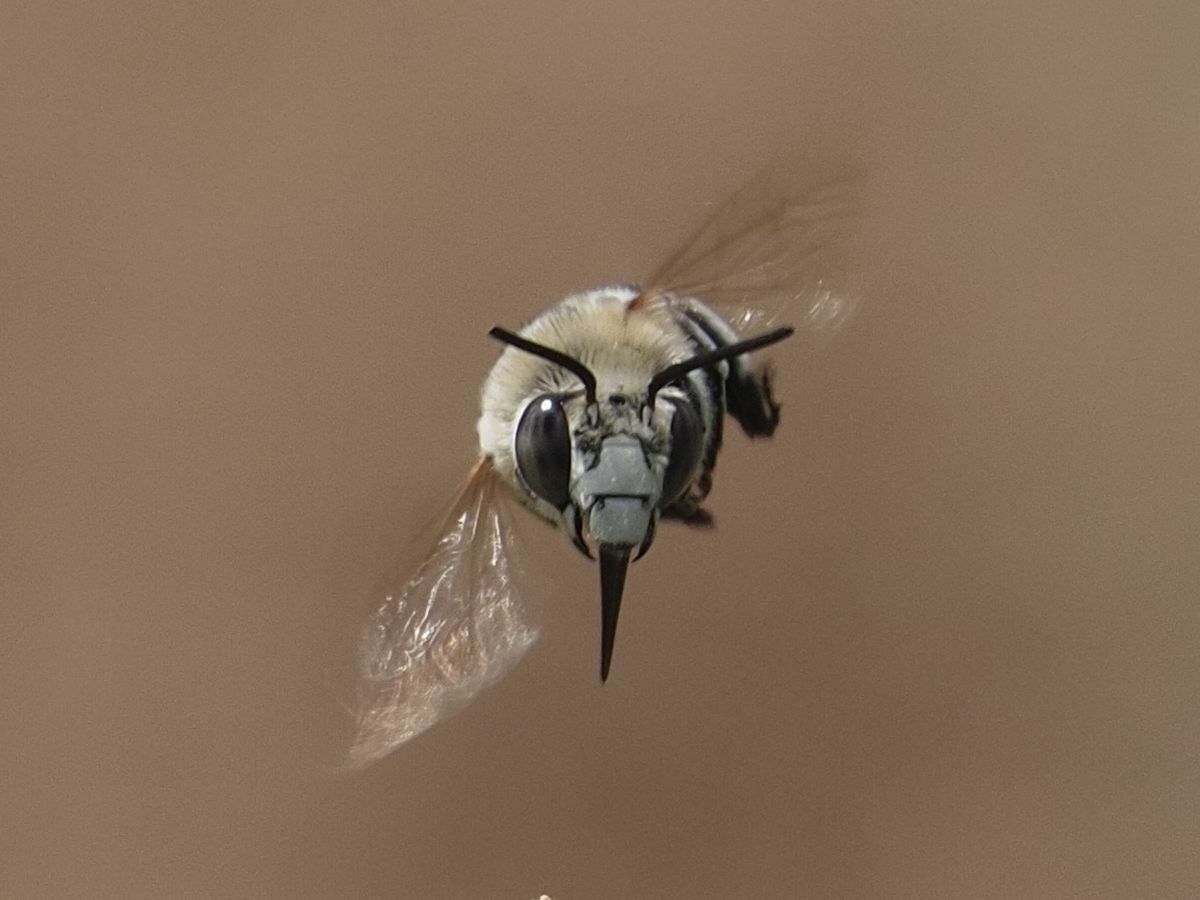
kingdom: Animalia
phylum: Arthropoda
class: Insecta
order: Hymenoptera
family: Apidae
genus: Amegilla
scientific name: Amegilla quadrifasciata
